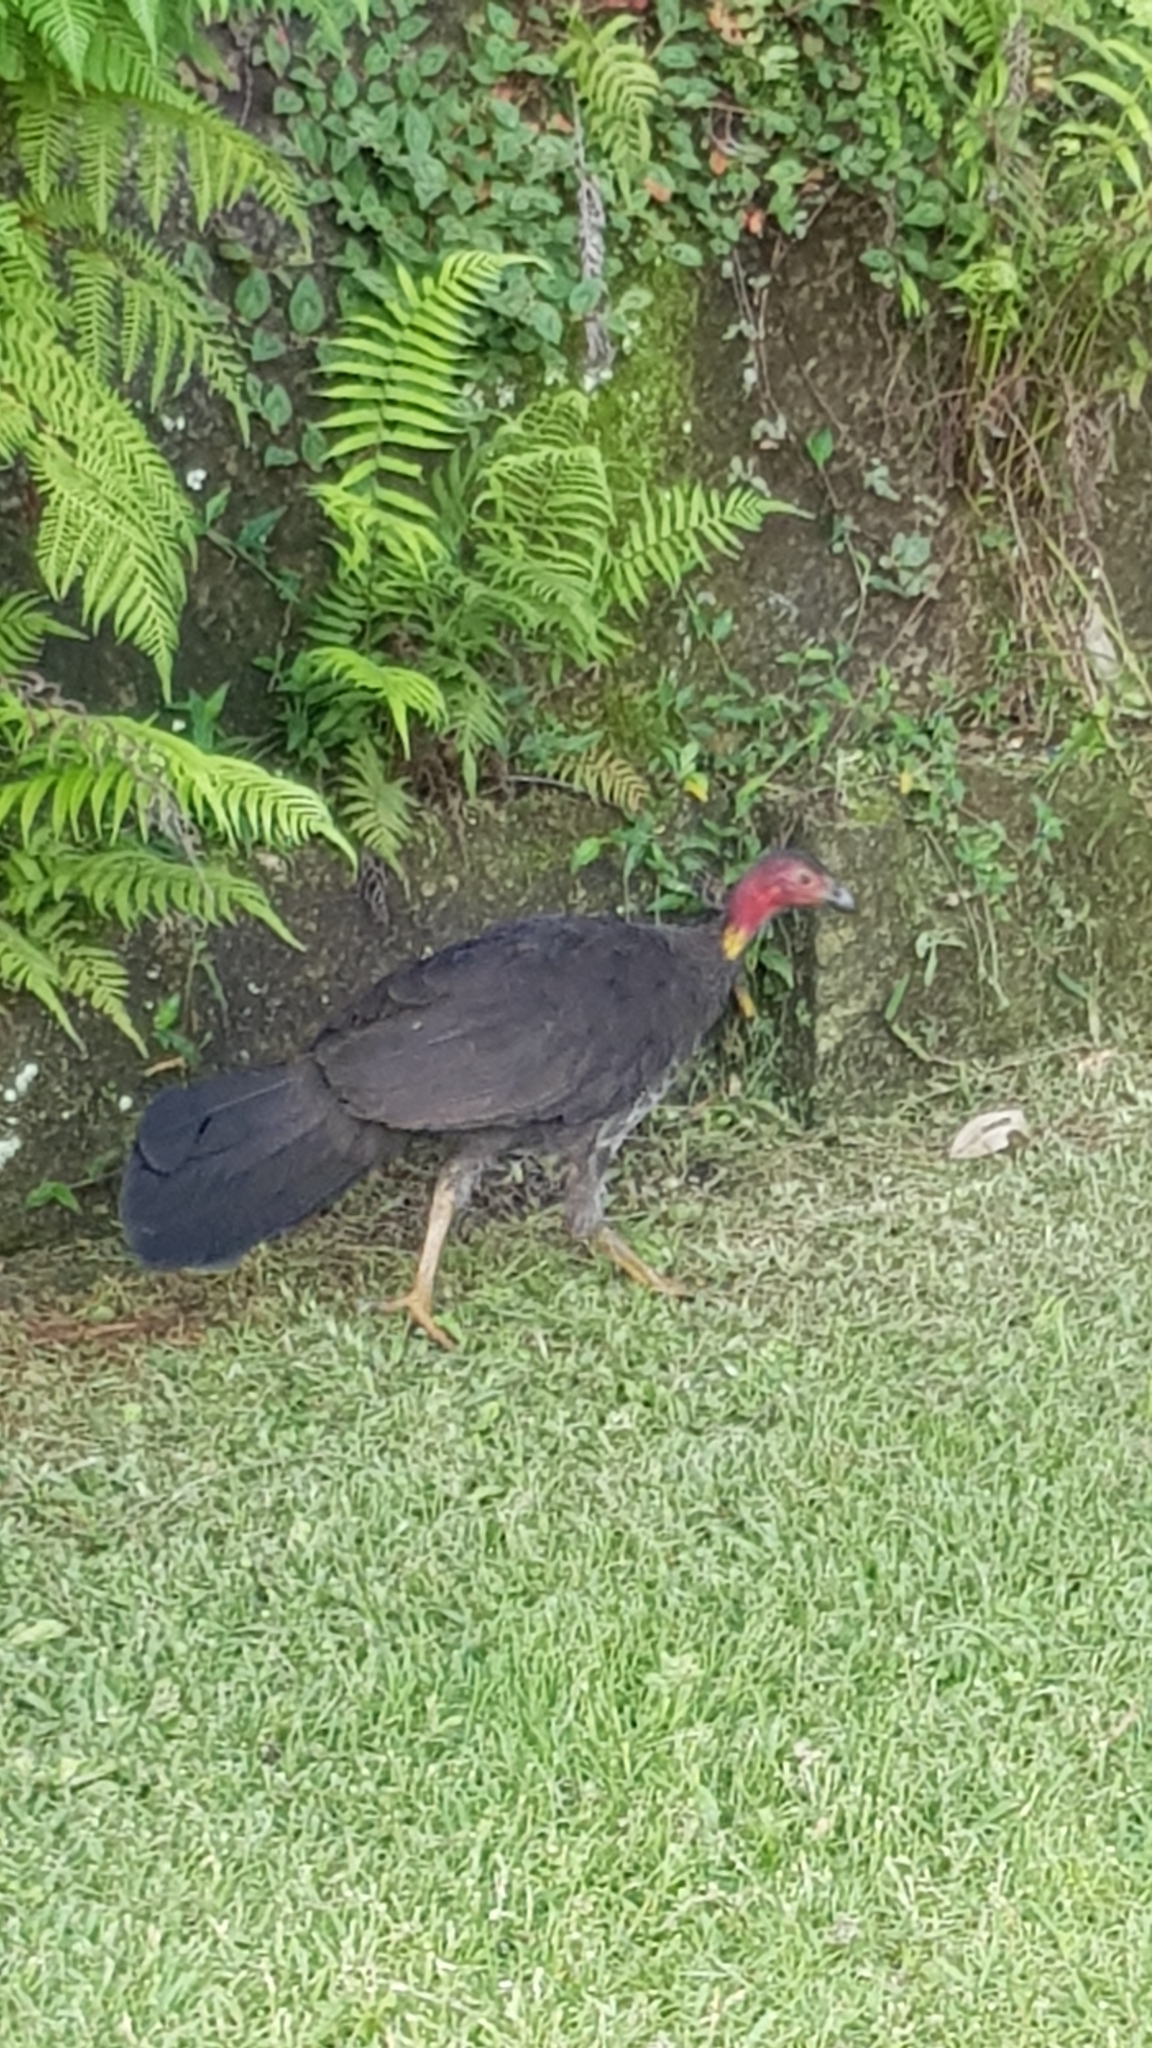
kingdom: Animalia
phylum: Chordata
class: Aves
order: Galliformes
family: Megapodiidae
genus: Alectura
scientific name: Alectura lathami
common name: Australian brushturkey
